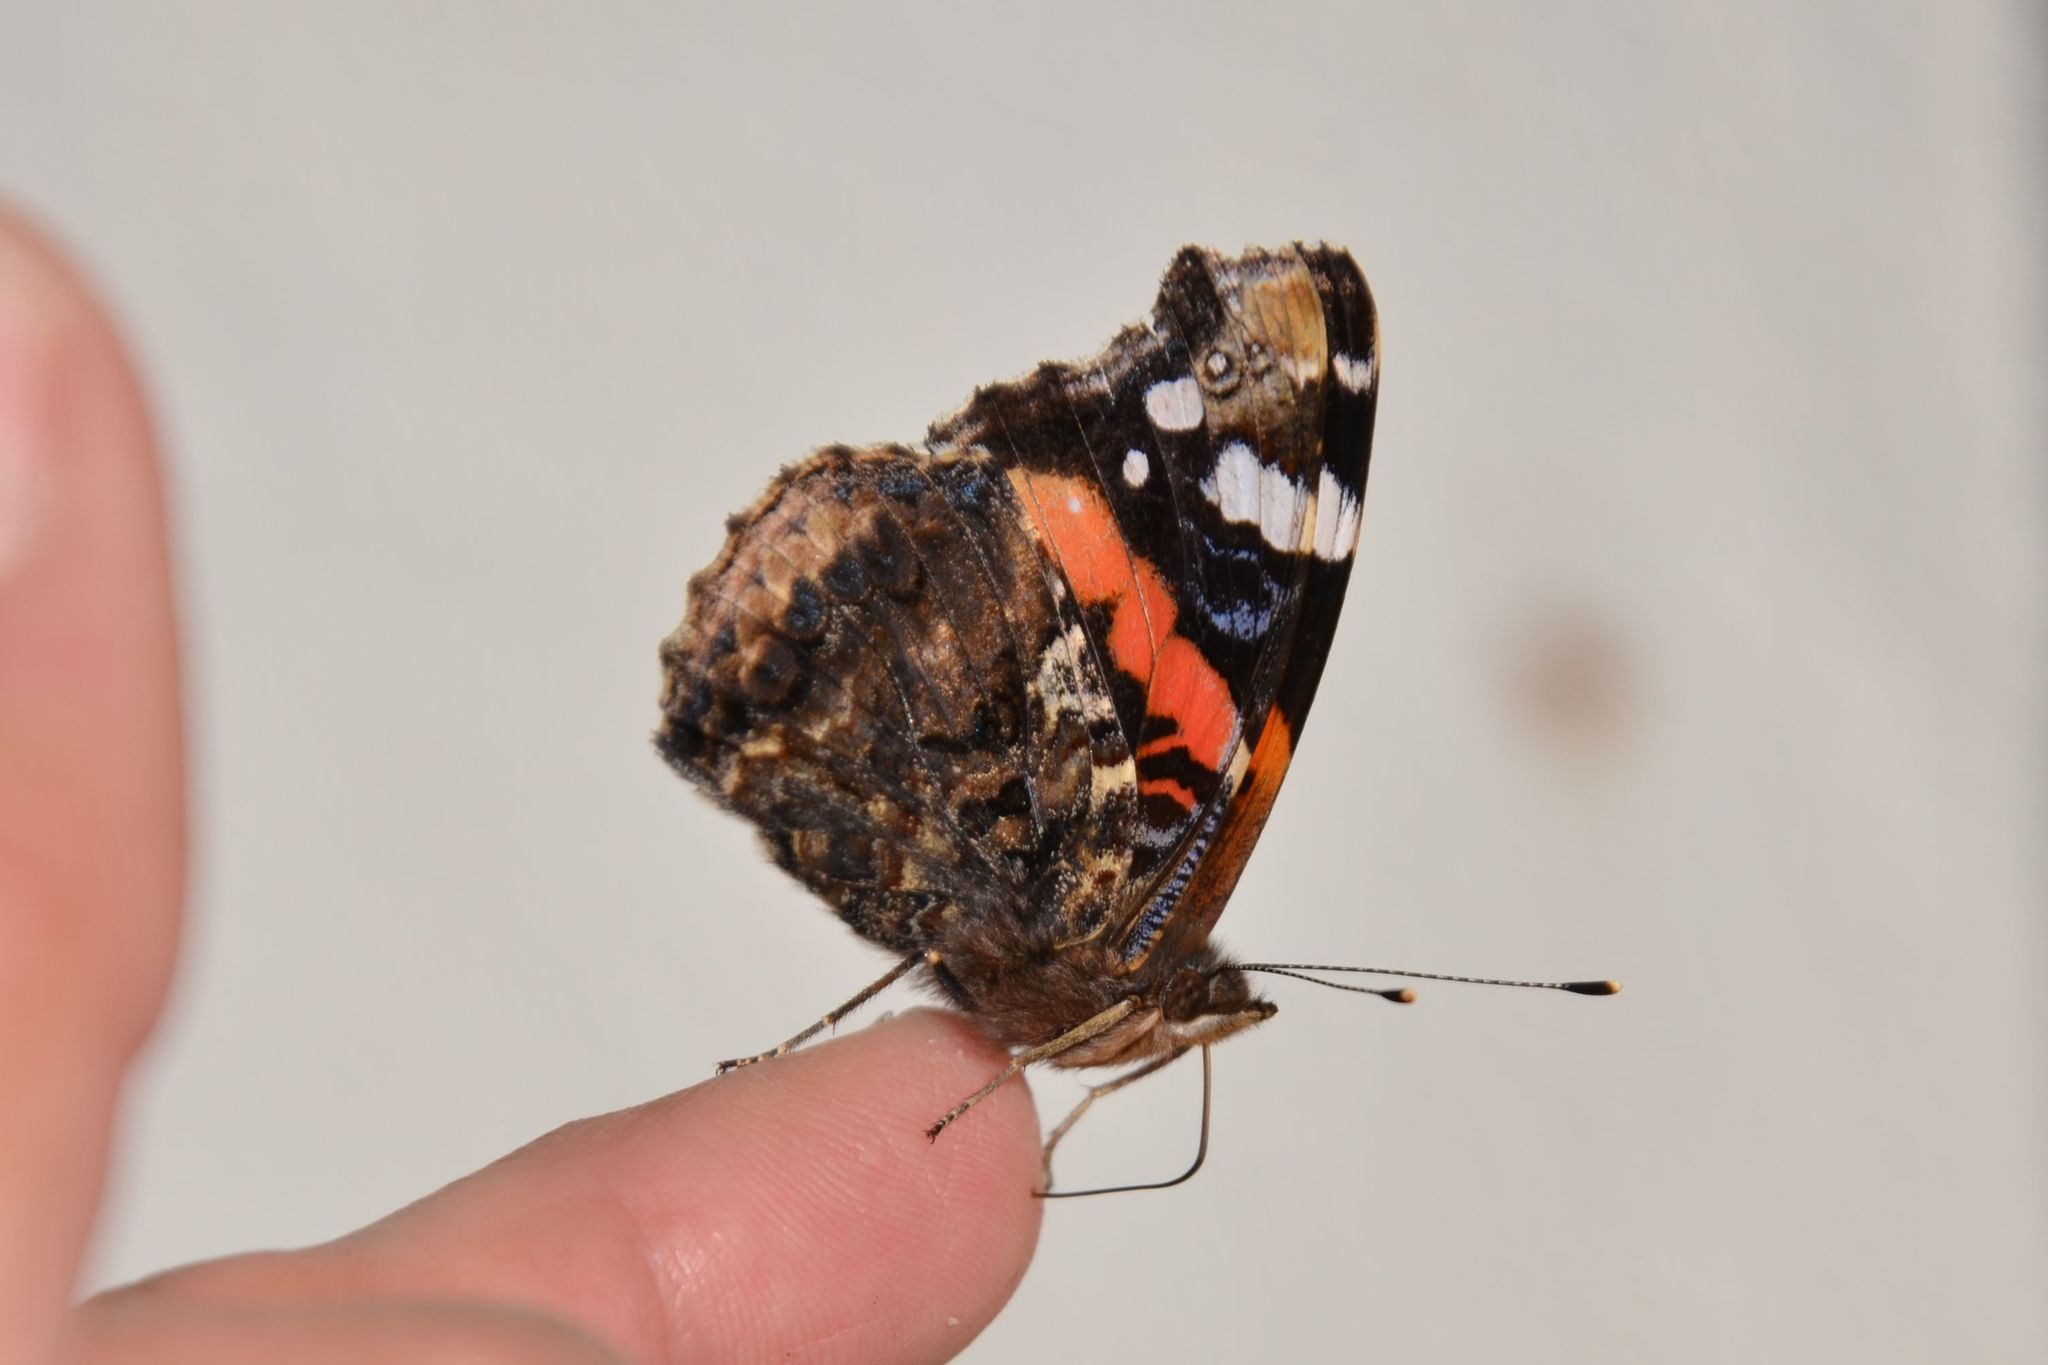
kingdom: Animalia
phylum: Arthropoda
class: Insecta
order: Lepidoptera
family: Nymphalidae
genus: Vanessa
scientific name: Vanessa atalanta
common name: Red admiral
